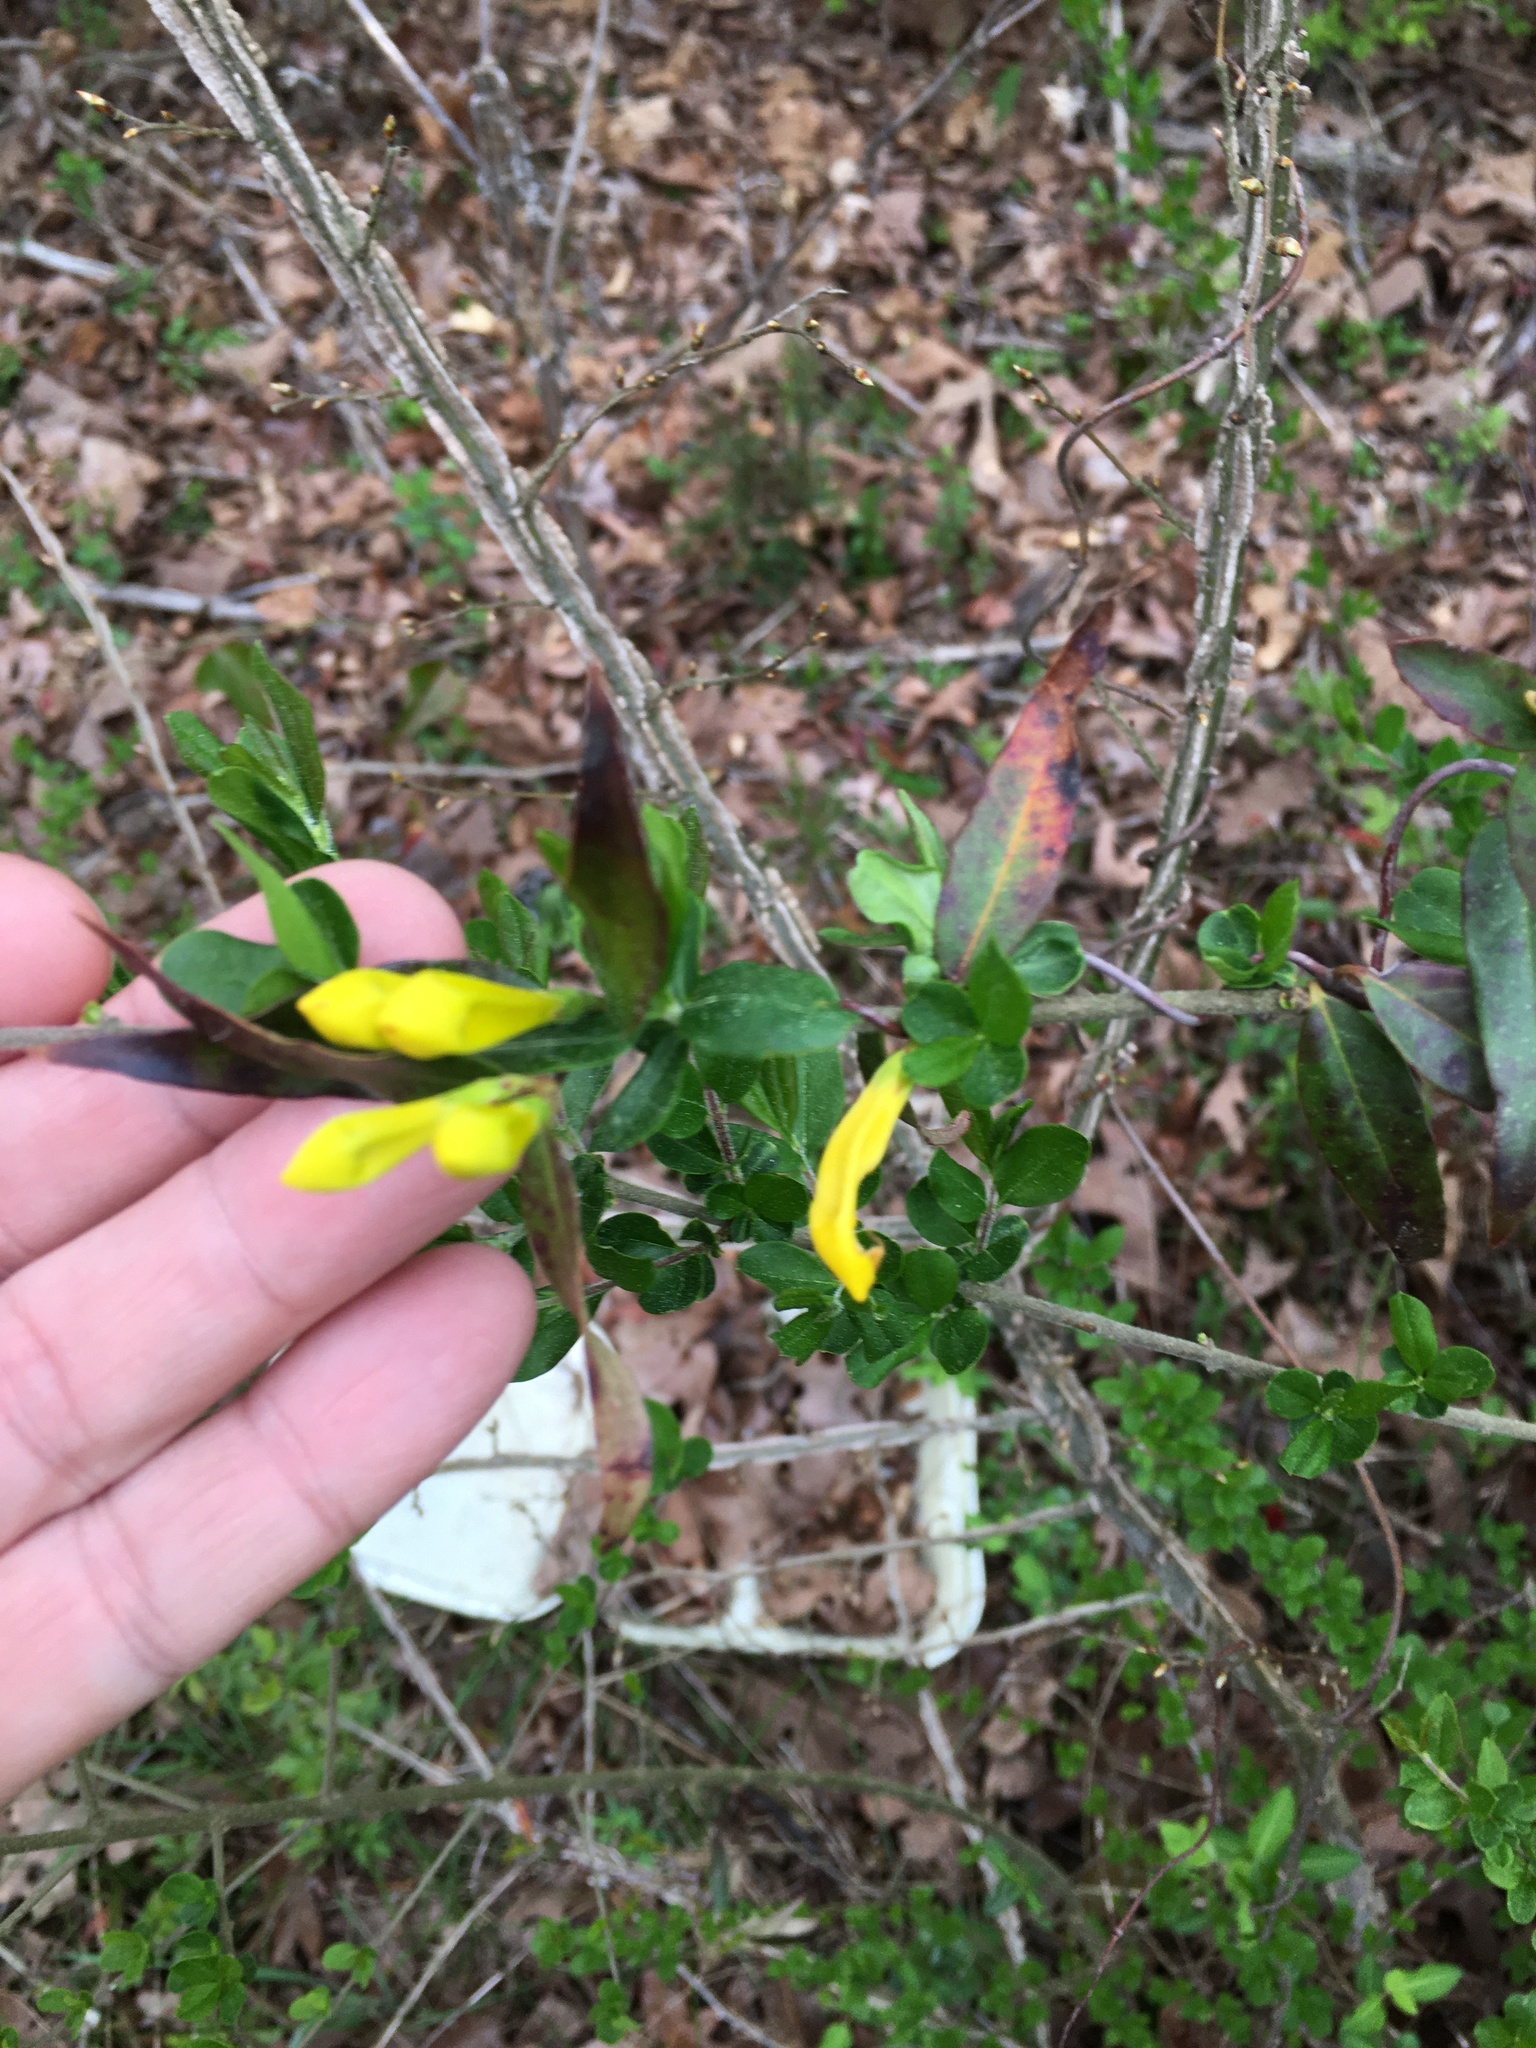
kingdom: Plantae
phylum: Tracheophyta
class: Magnoliopsida
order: Gentianales
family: Gelsemiaceae
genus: Gelsemium
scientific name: Gelsemium sempervirens
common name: Carolina-jasmine
